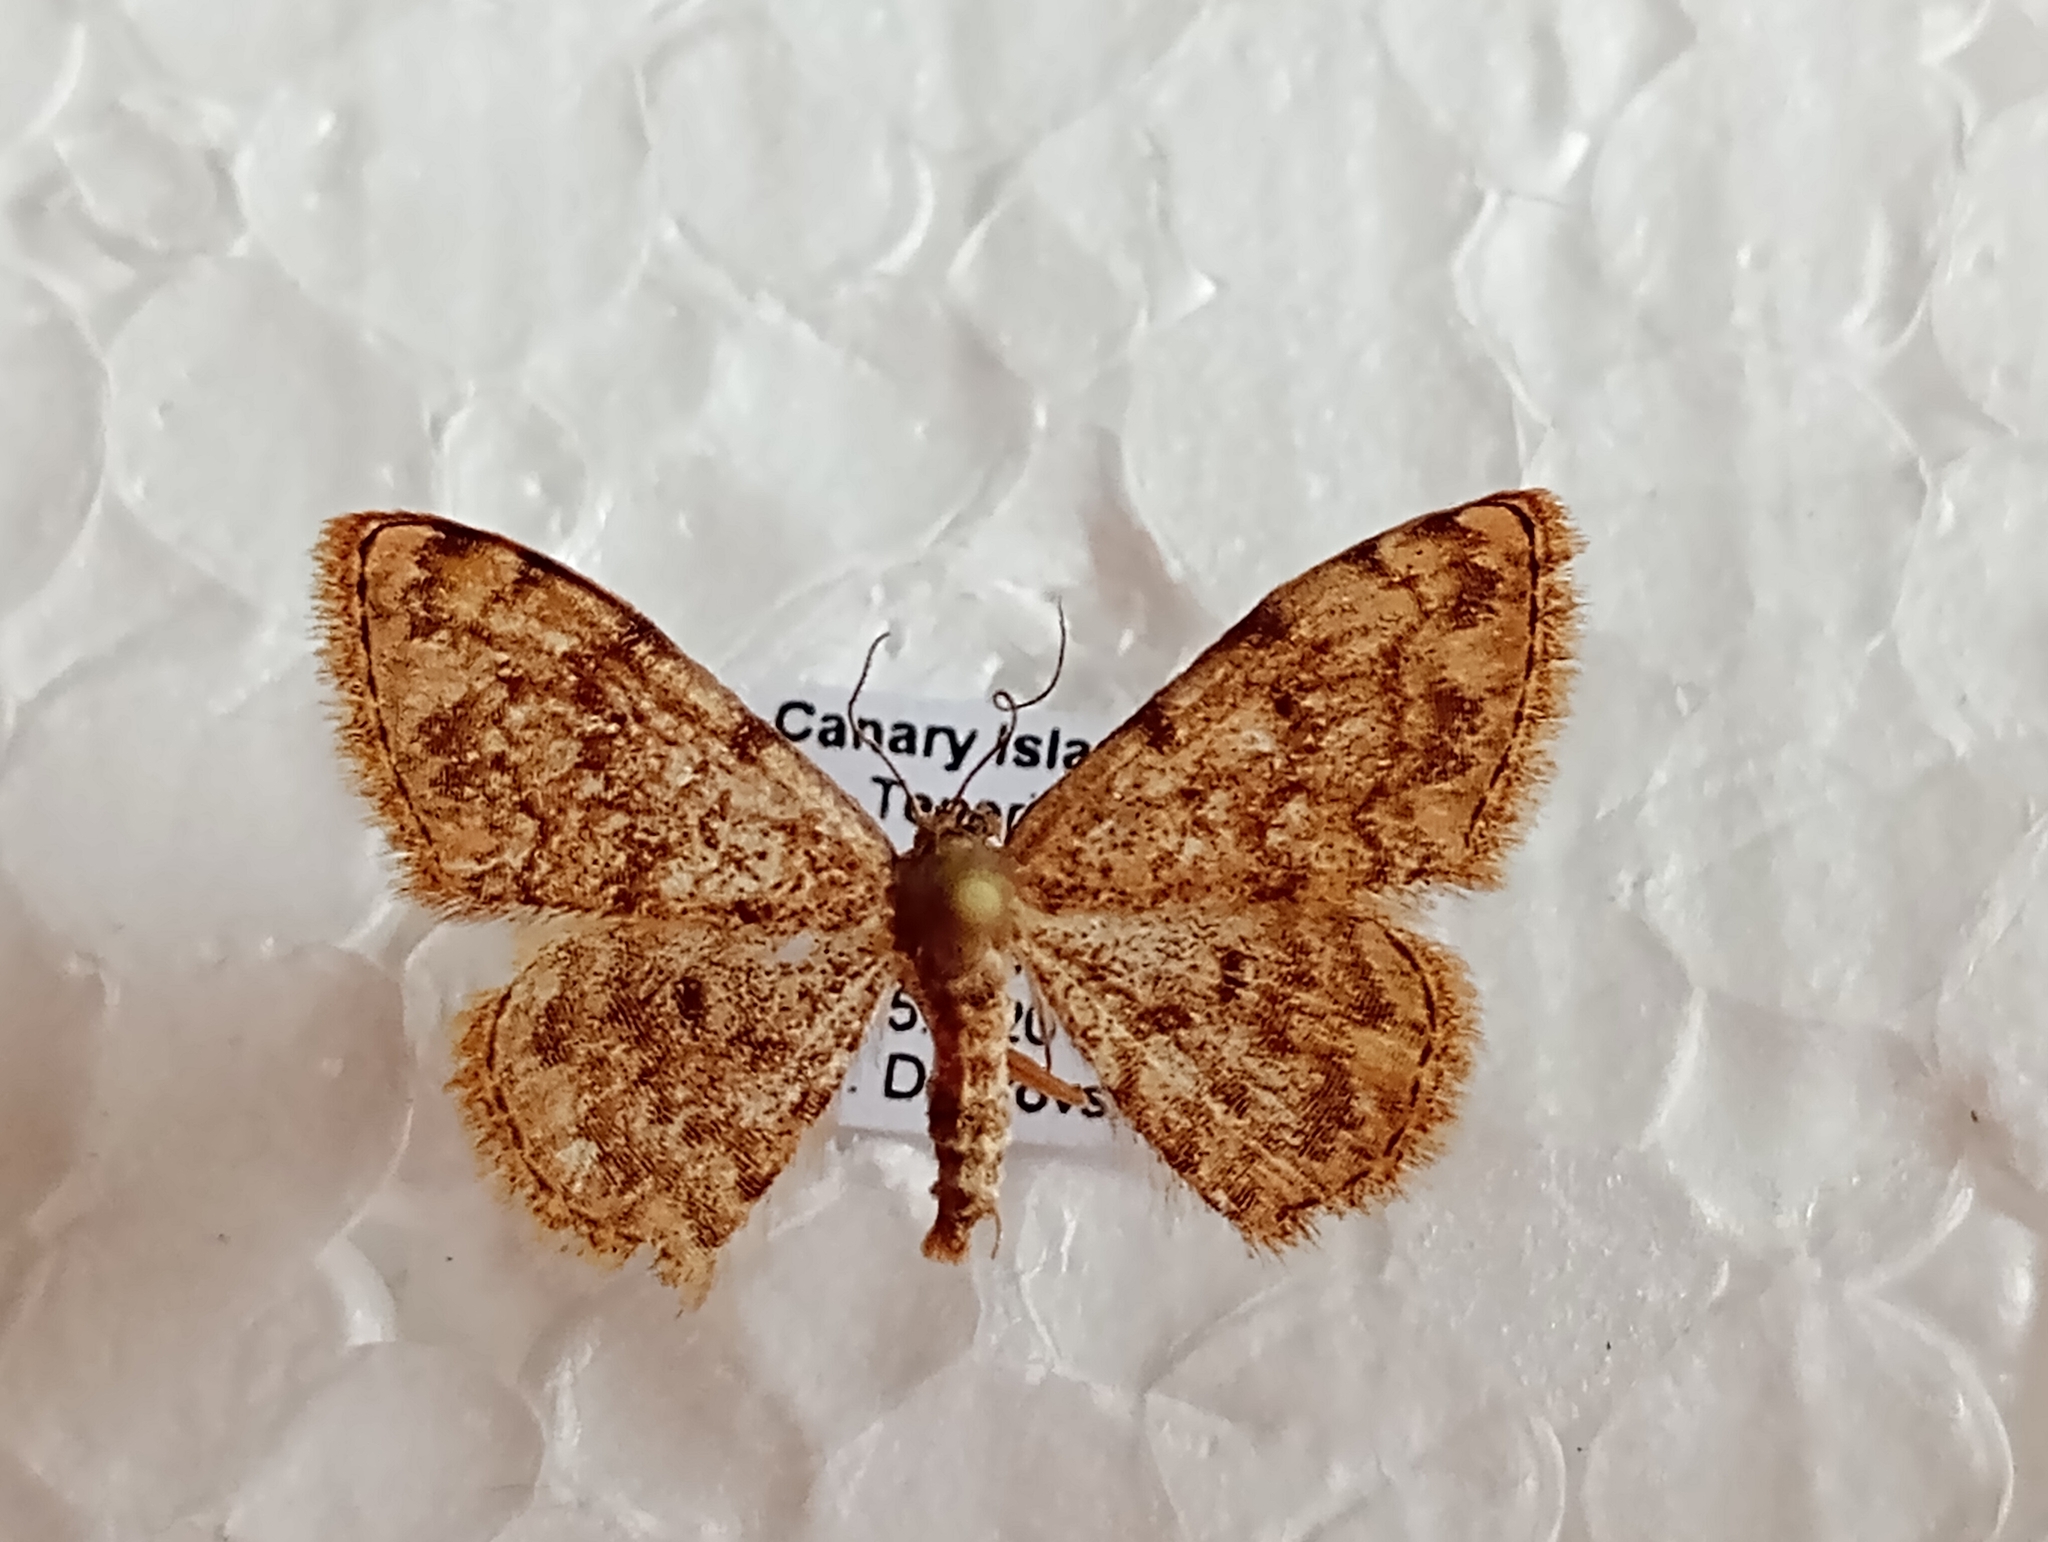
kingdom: Animalia
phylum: Arthropoda
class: Insecta
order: Lepidoptera
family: Geometridae
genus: Glossotrophia
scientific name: Glossotrophia asellaria
